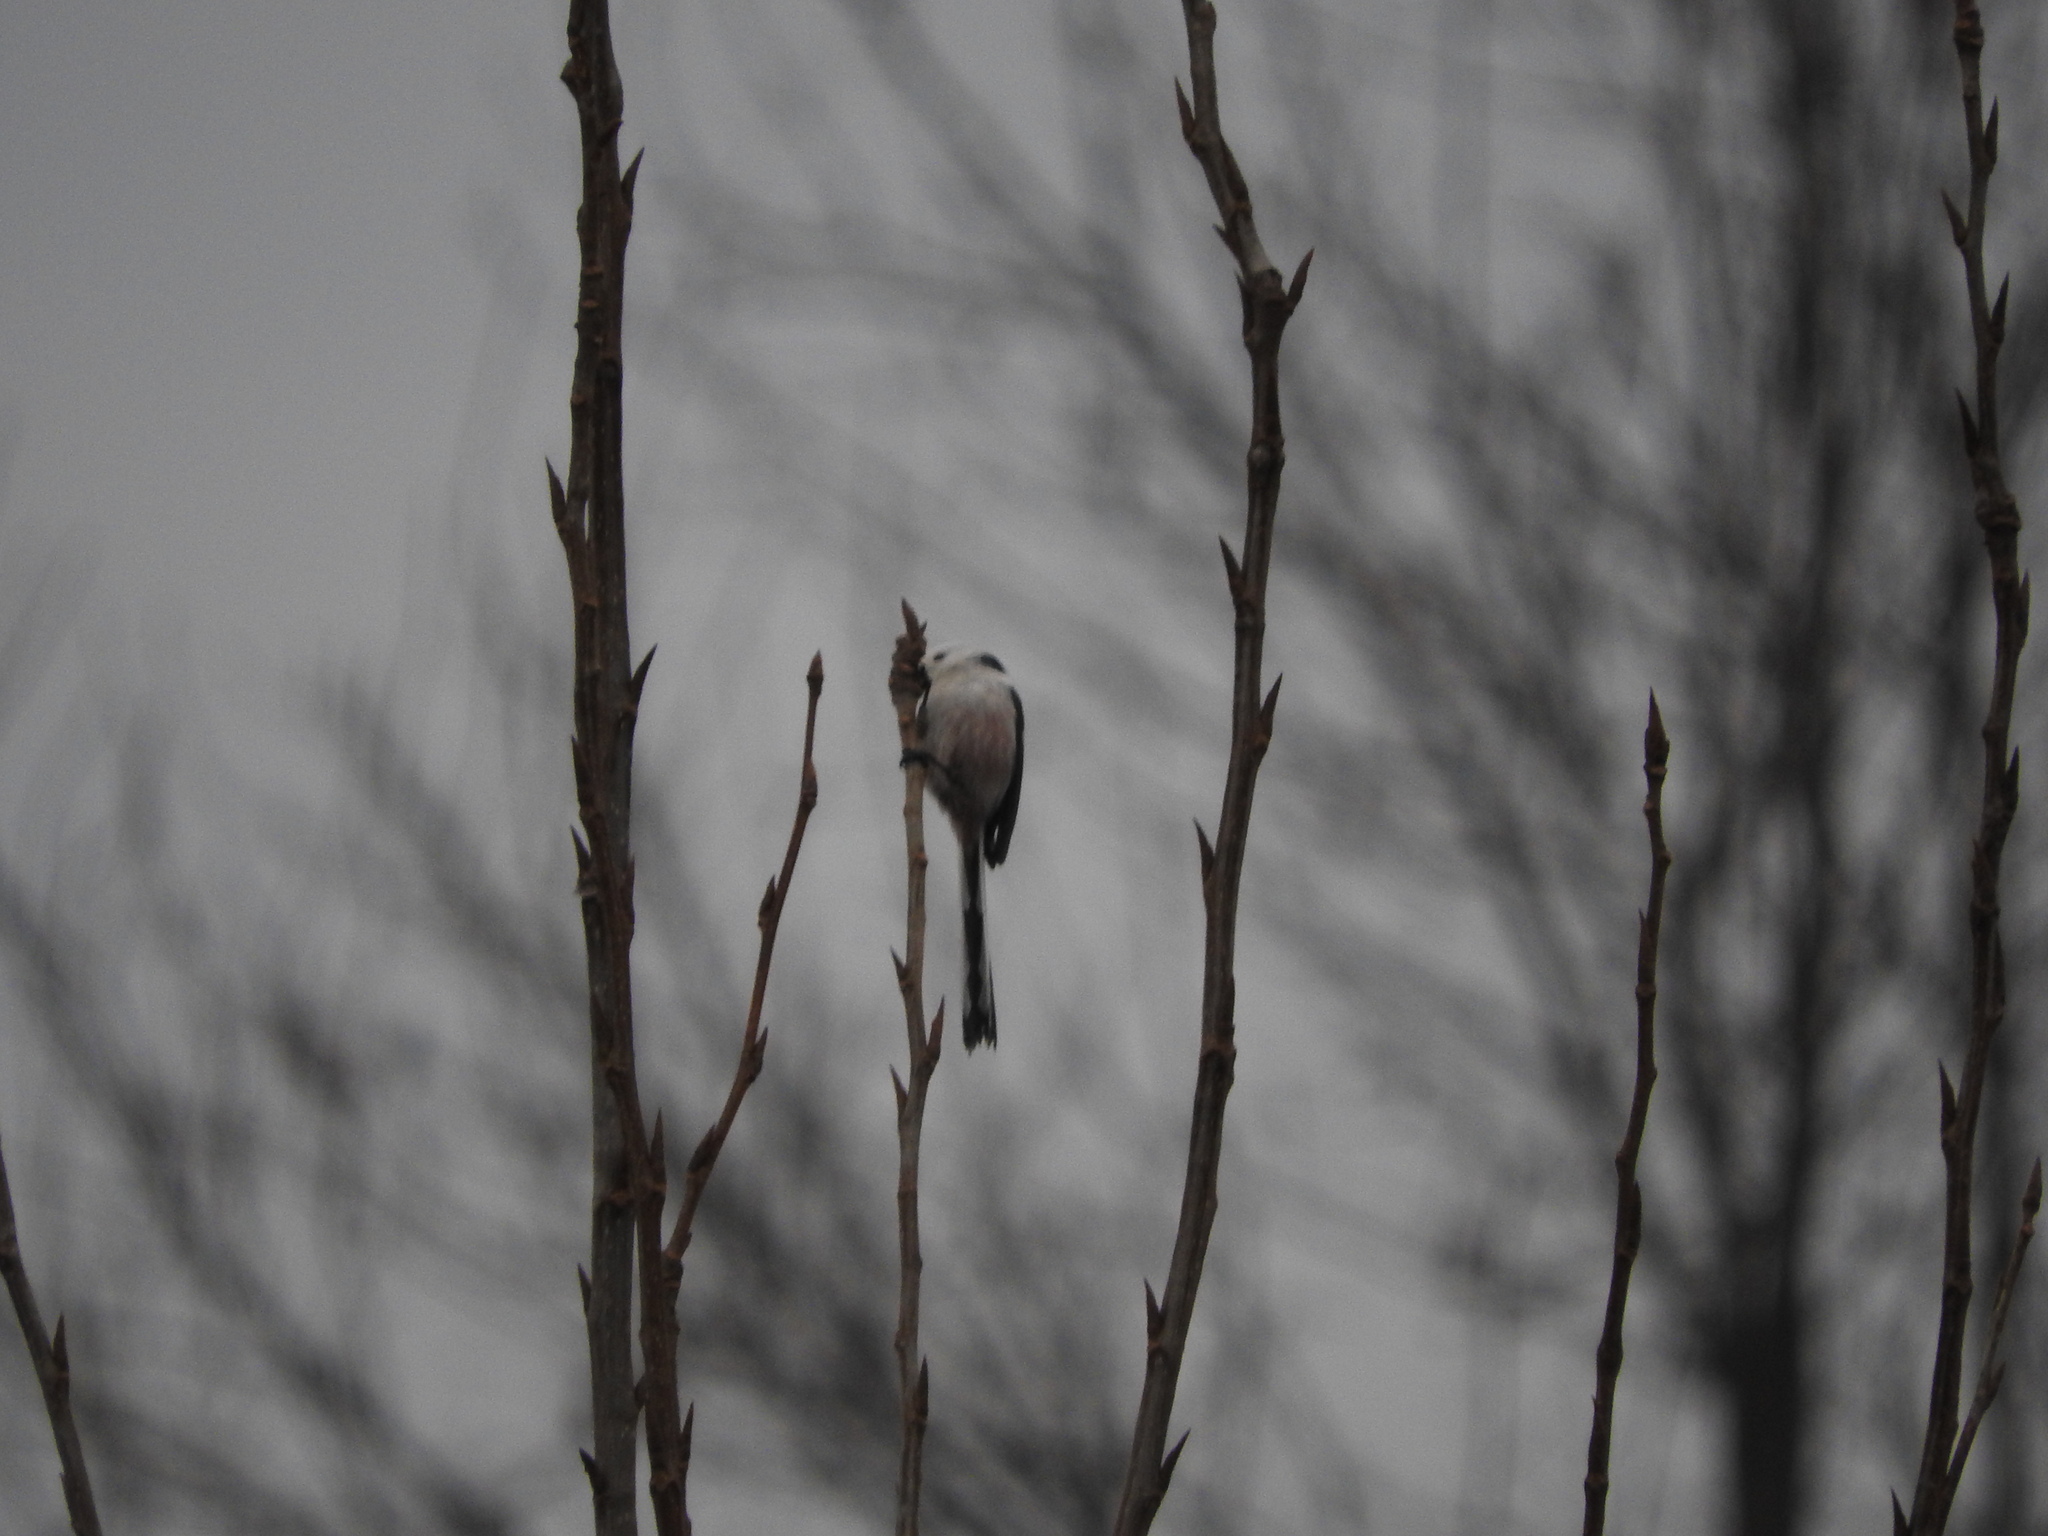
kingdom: Animalia
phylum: Chordata
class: Aves
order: Passeriformes
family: Aegithalidae
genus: Aegithalos
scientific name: Aegithalos caudatus
